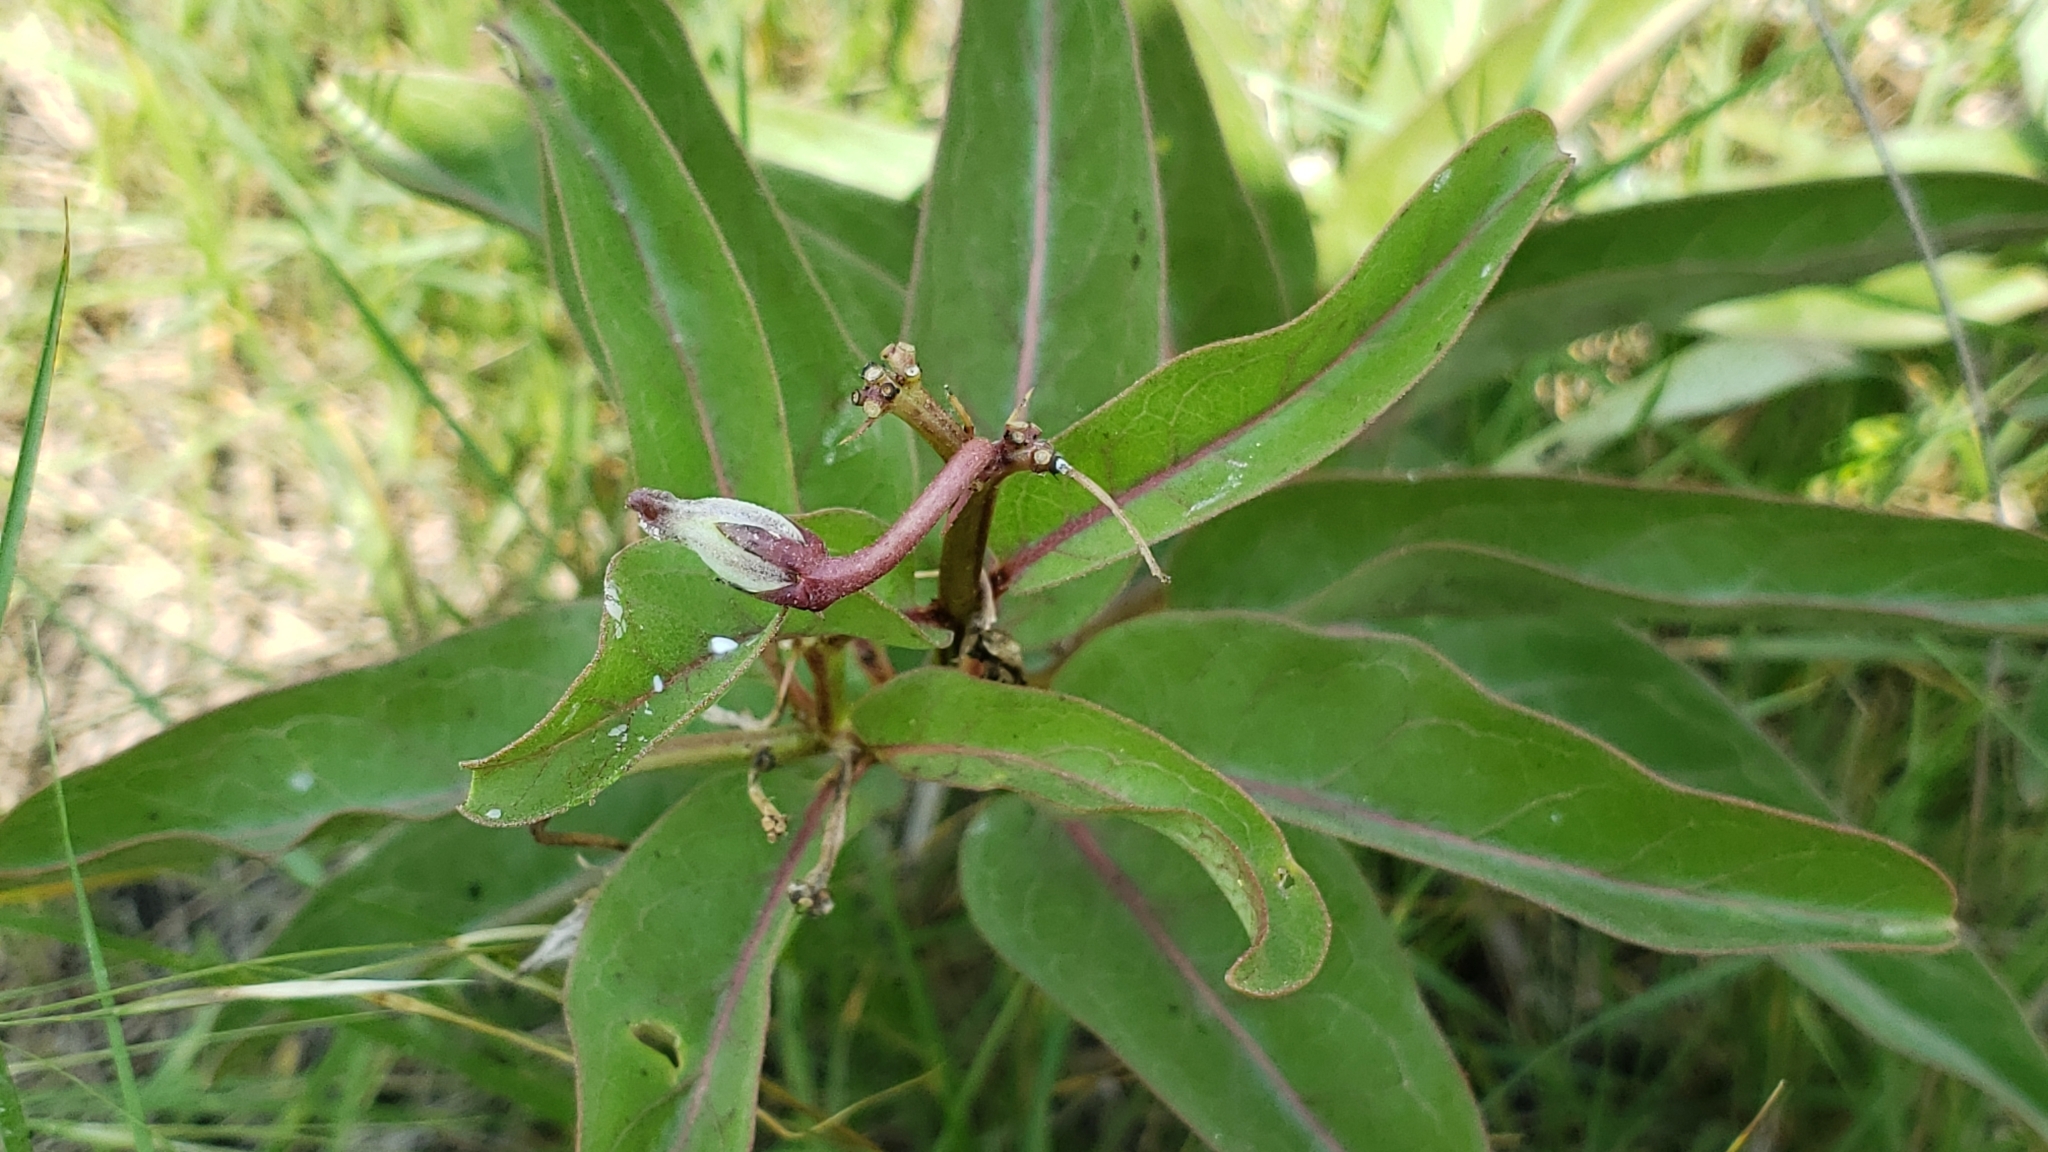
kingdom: Plantae
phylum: Tracheophyta
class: Magnoliopsida
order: Gentianales
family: Apocynaceae
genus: Asclepias
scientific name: Asclepias viridis
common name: Antelope-horns
